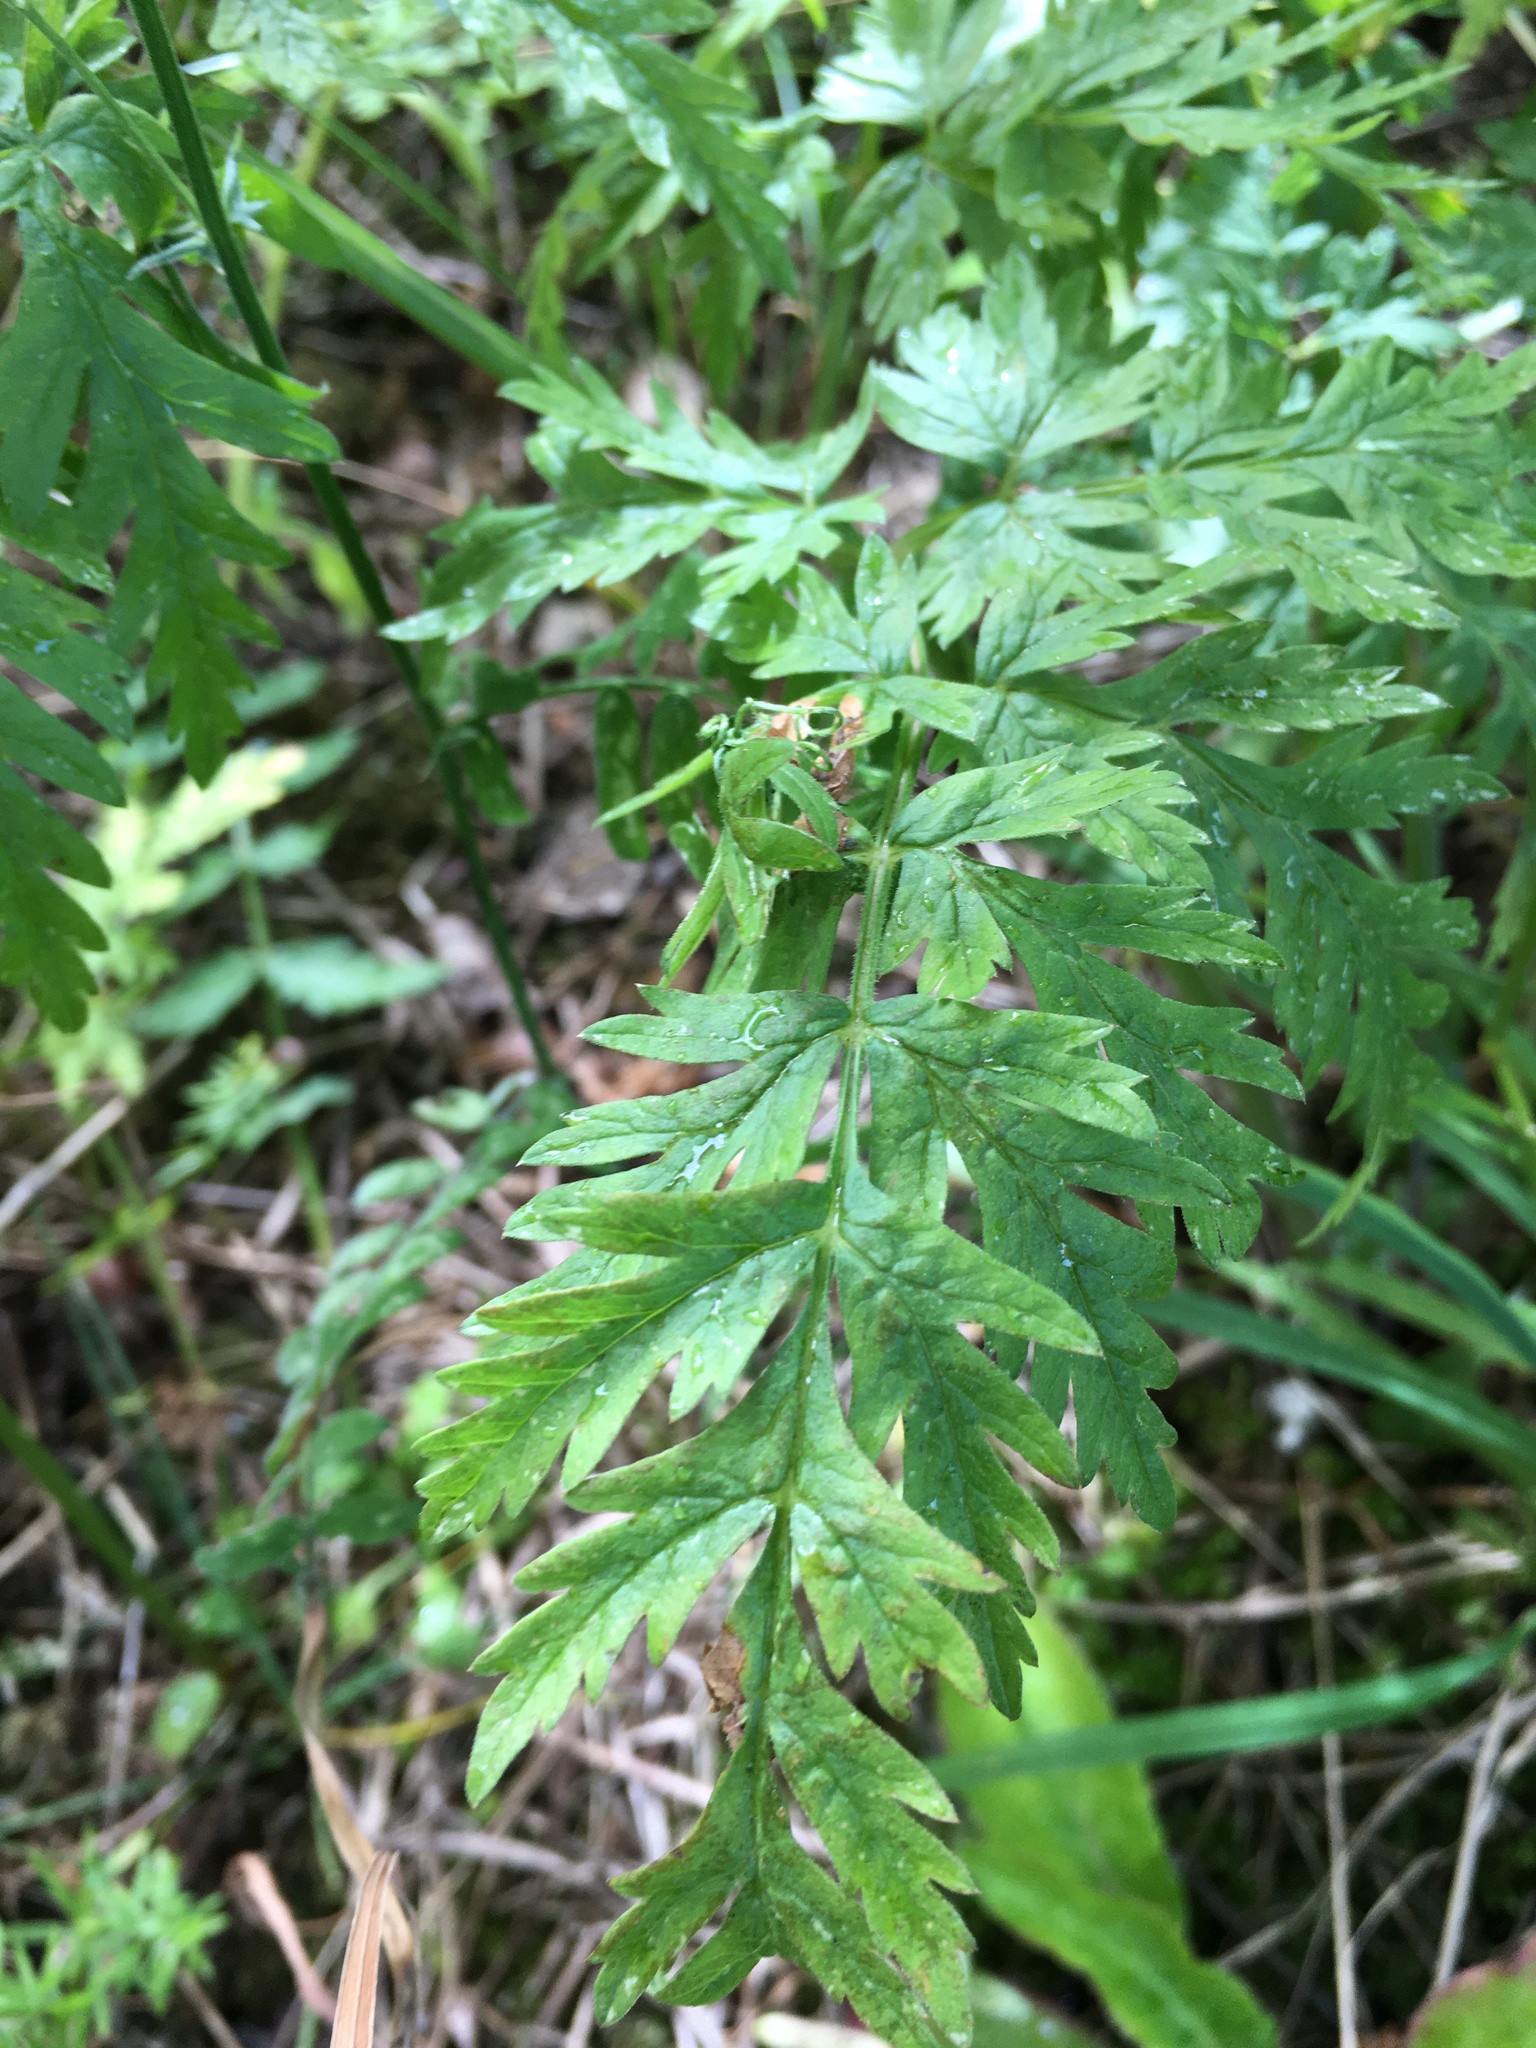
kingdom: Plantae
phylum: Tracheophyta
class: Magnoliopsida
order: Apiales
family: Apiaceae
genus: Anthriscus
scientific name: Anthriscus sylvestris
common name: Cow parsley
